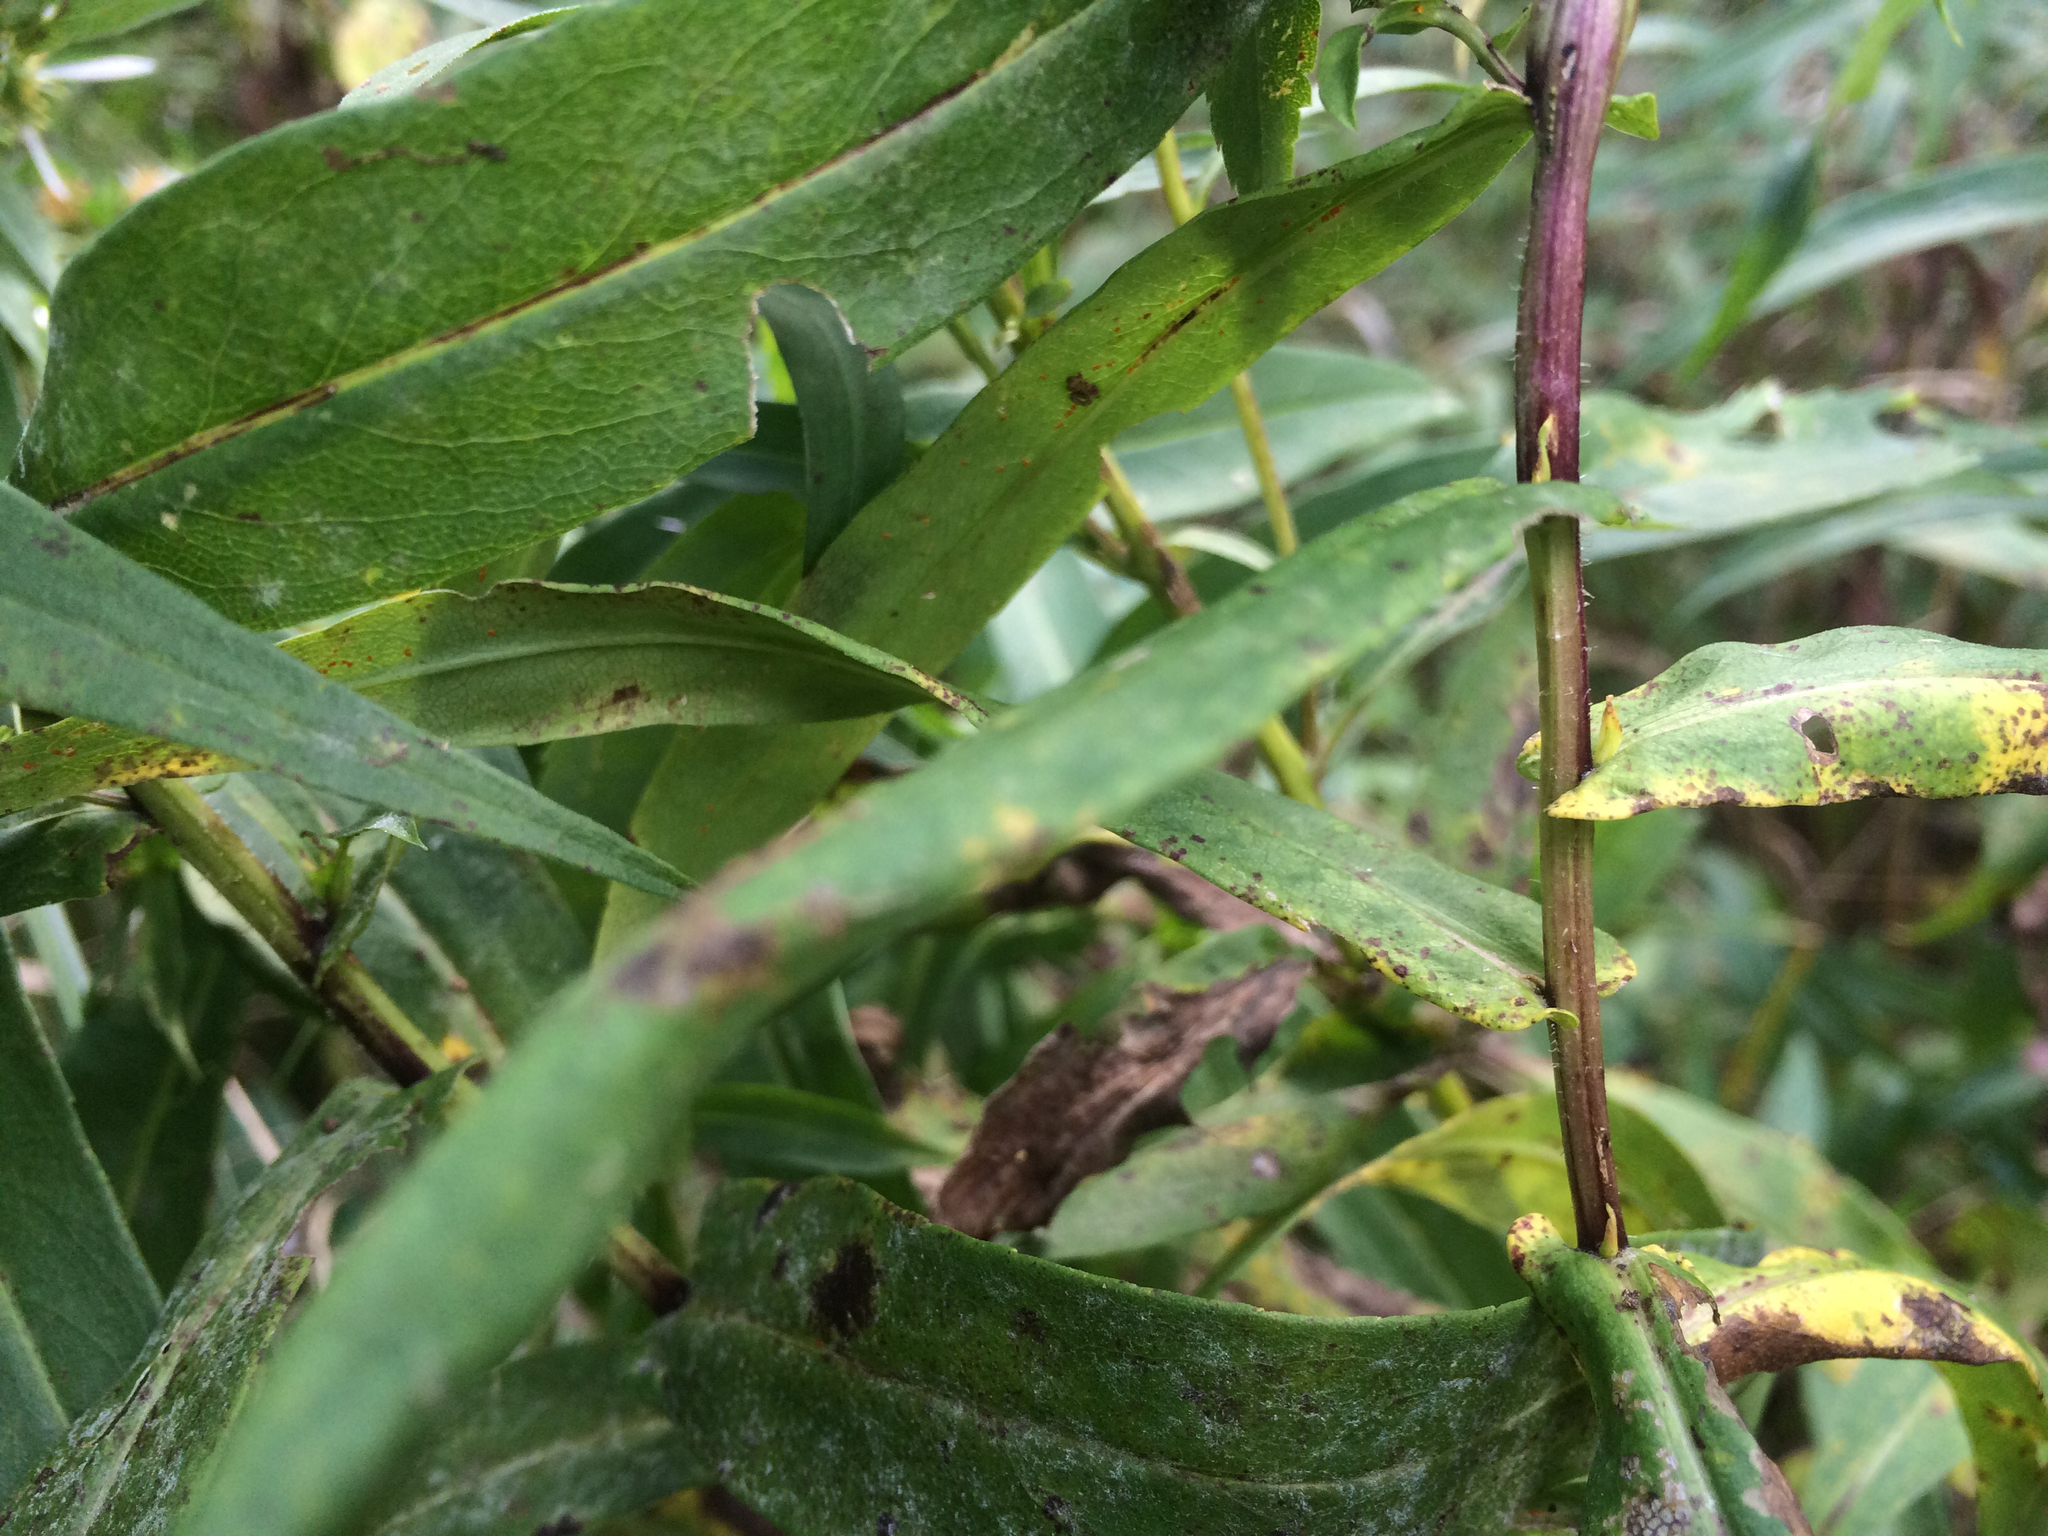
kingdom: Plantae
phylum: Tracheophyta
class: Magnoliopsida
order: Asterales
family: Asteraceae
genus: Symphyotrichum
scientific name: Symphyotrichum firmum
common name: Shining aster
